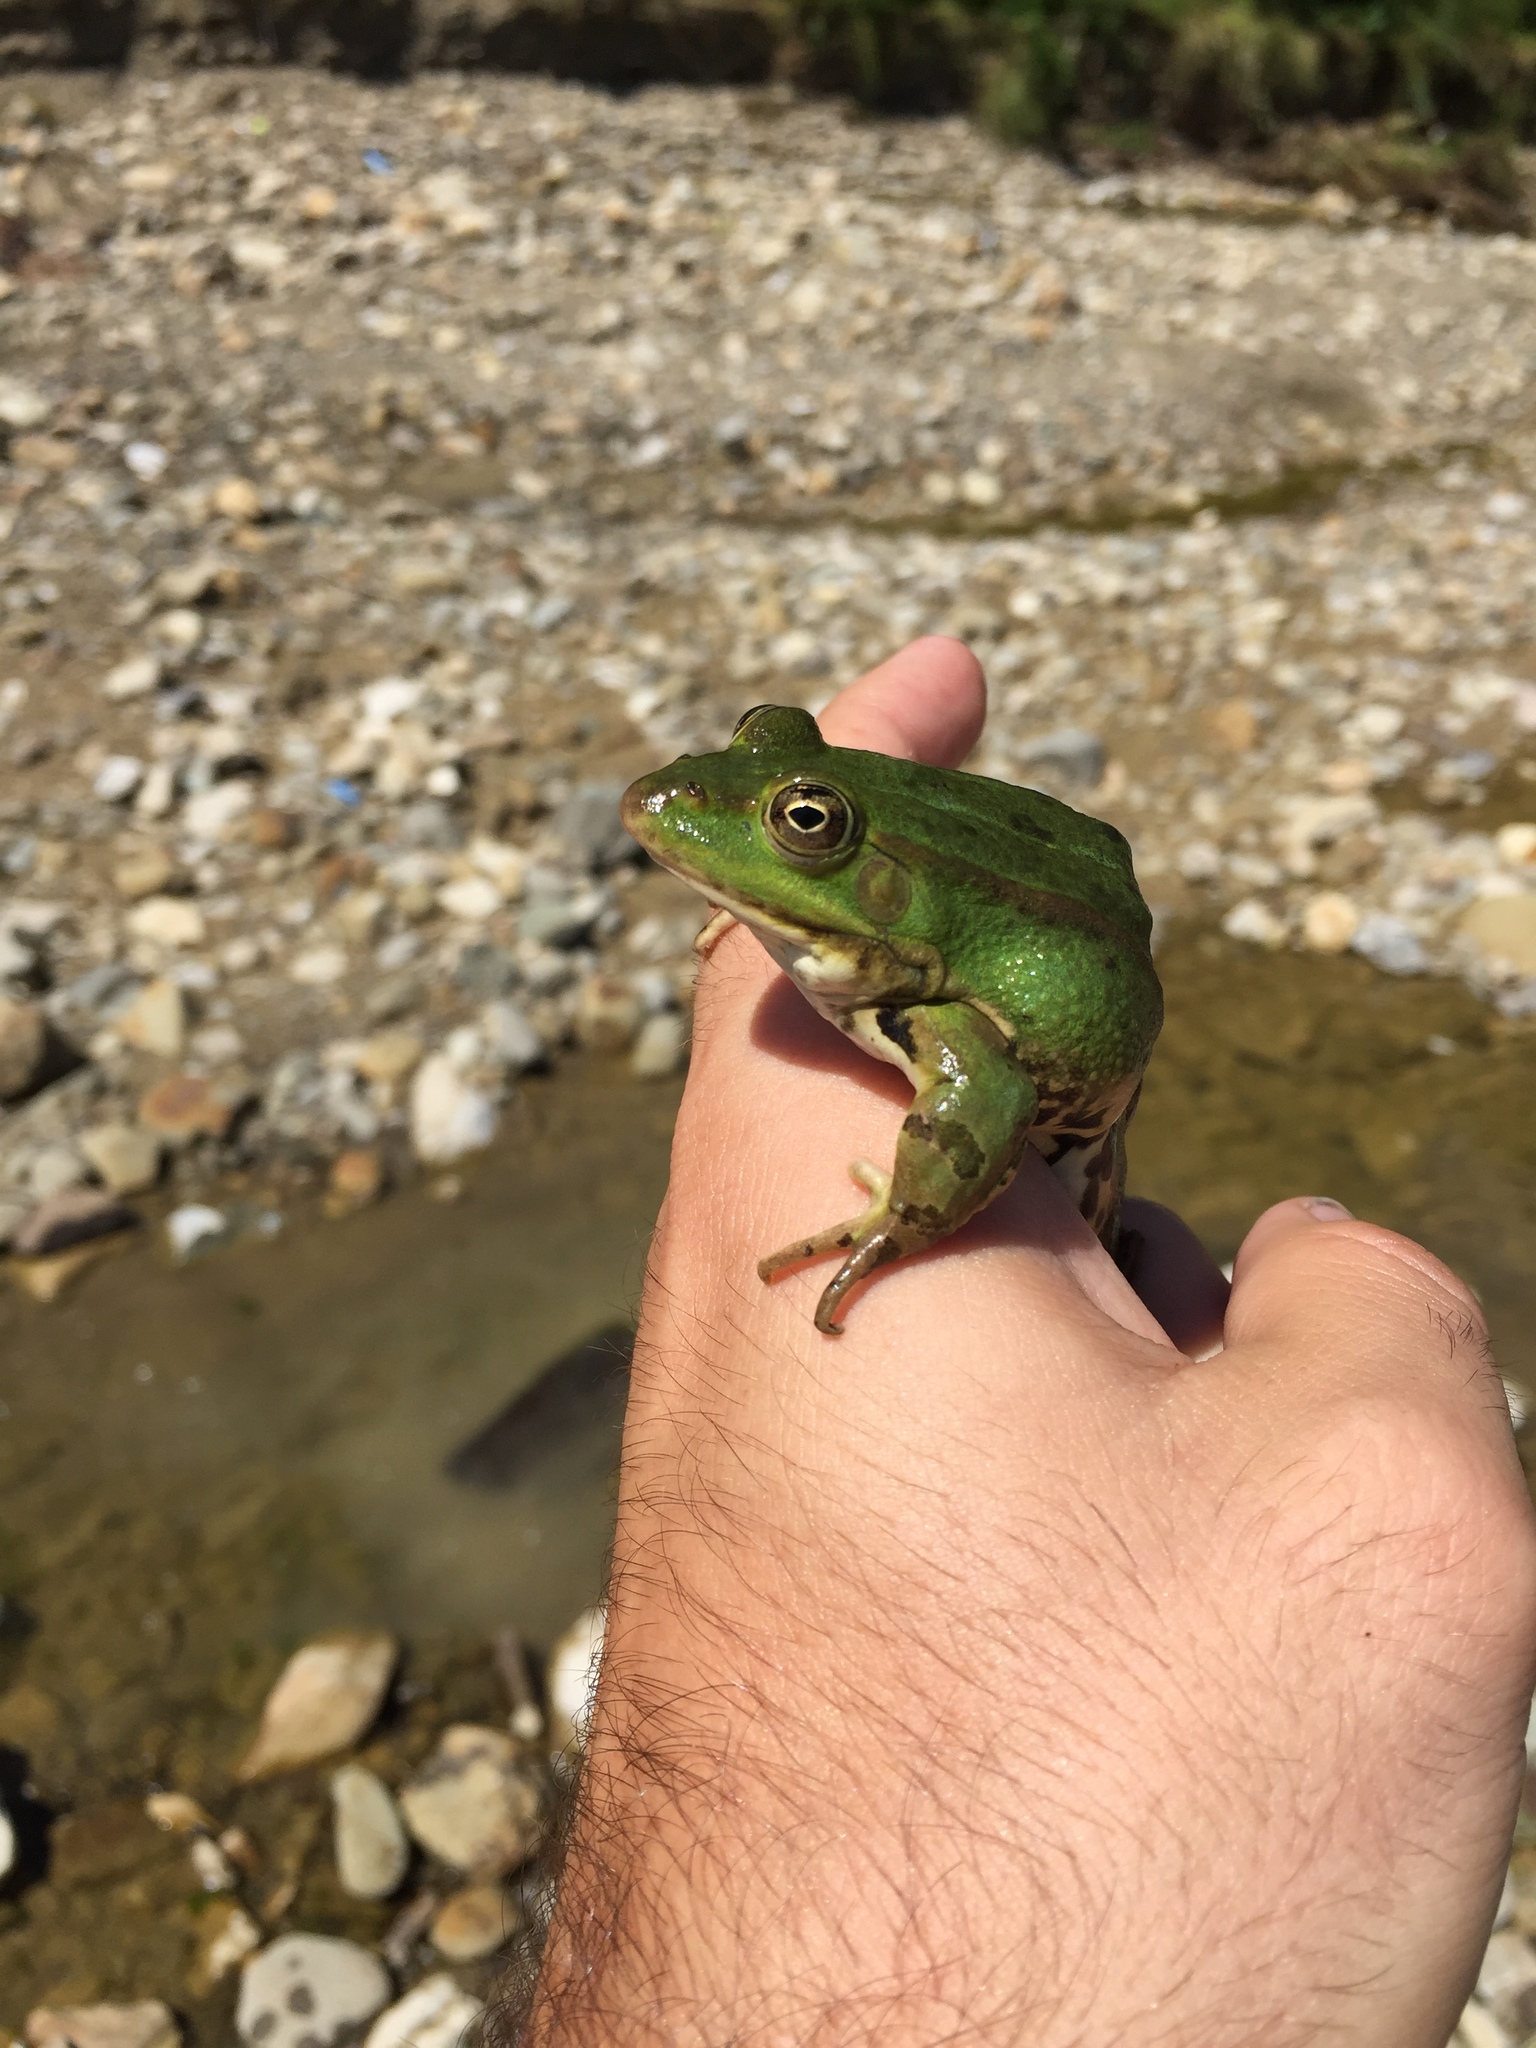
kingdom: Animalia
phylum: Chordata
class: Amphibia
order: Anura
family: Ranidae
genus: Pelophylax
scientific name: Pelophylax lessonae
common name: Pool frog
